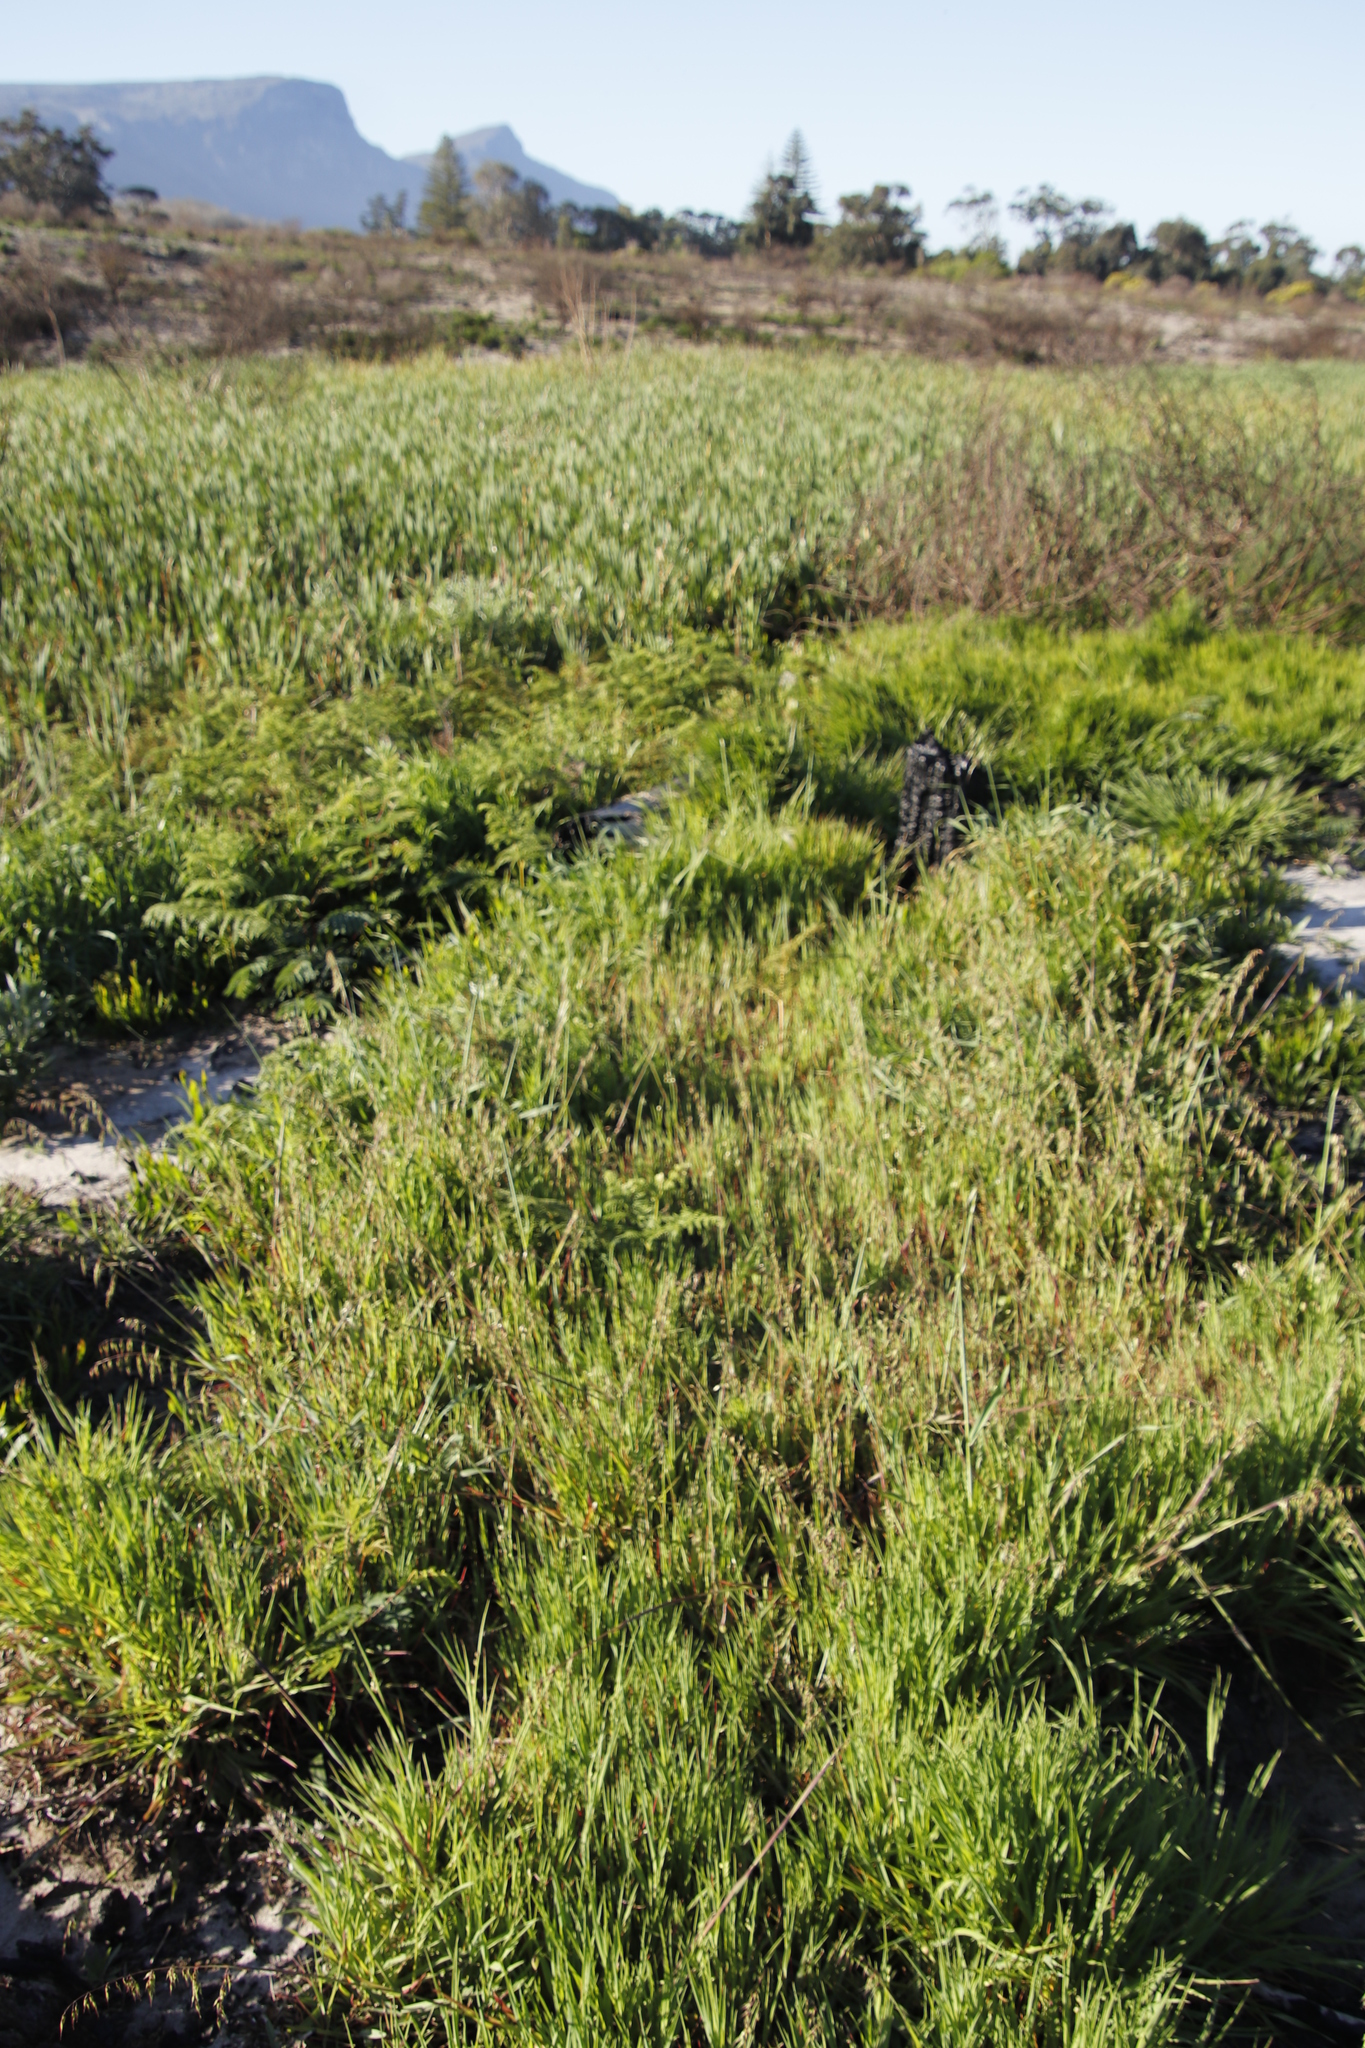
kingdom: Plantae
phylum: Tracheophyta
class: Liliopsida
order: Poales
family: Poaceae
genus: Briza
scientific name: Briza maxima
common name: Big quakinggrass
